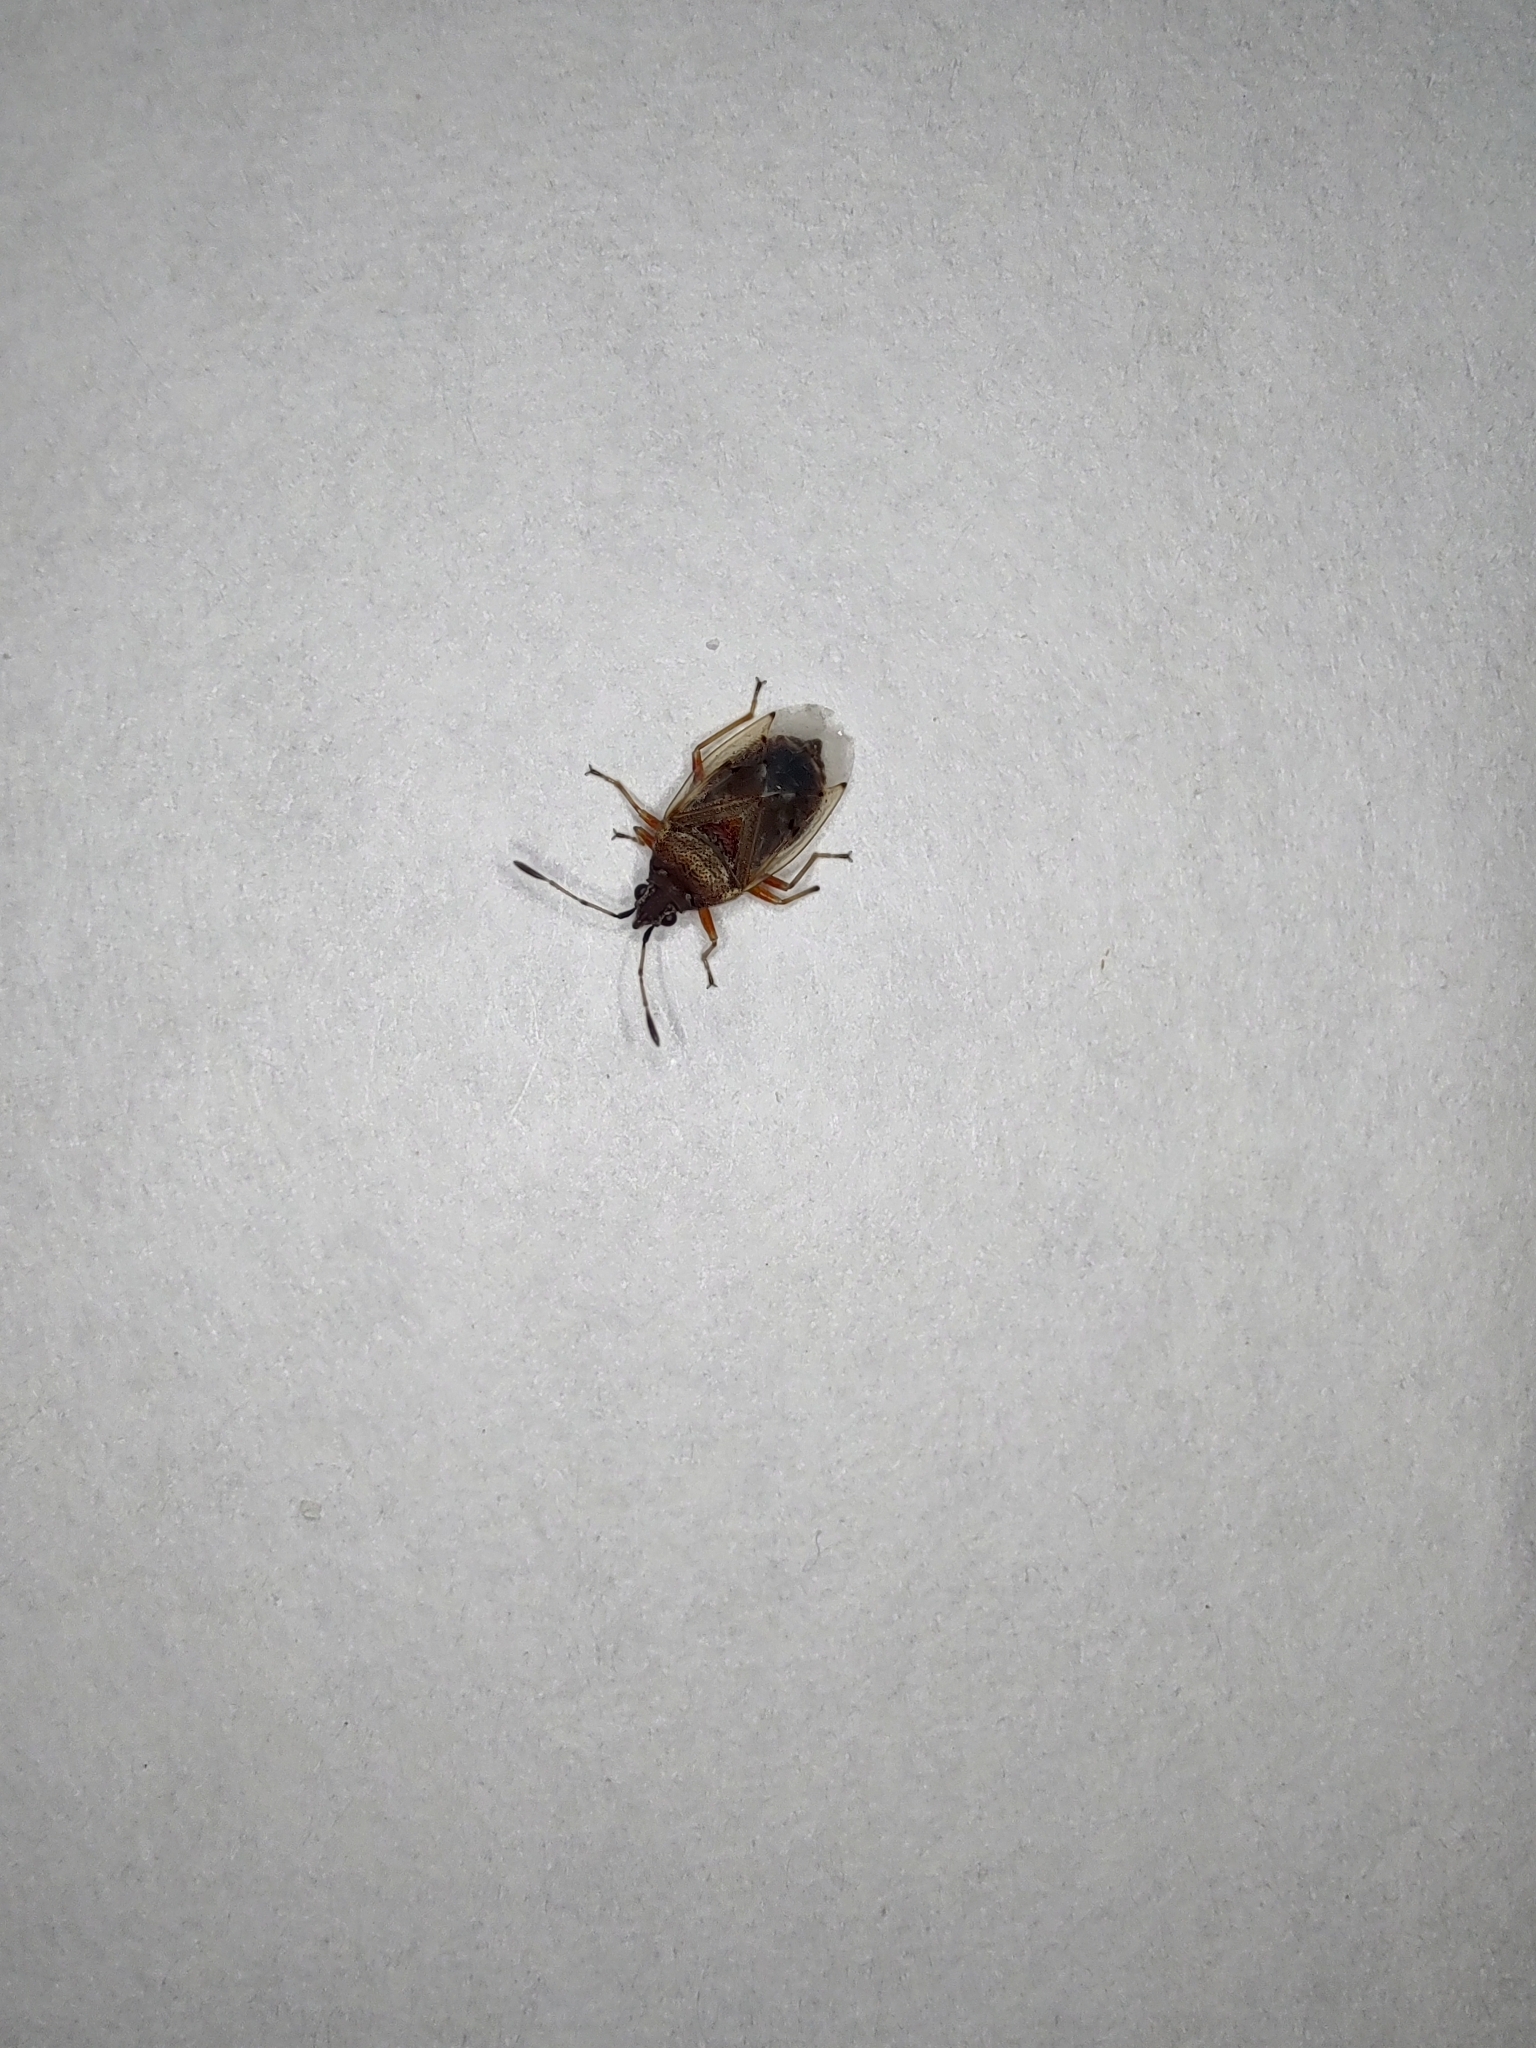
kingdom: Animalia
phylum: Arthropoda
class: Insecta
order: Hemiptera
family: Lygaeidae
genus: Kleidocerys
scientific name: Kleidocerys resedae
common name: Birch catkin bug
